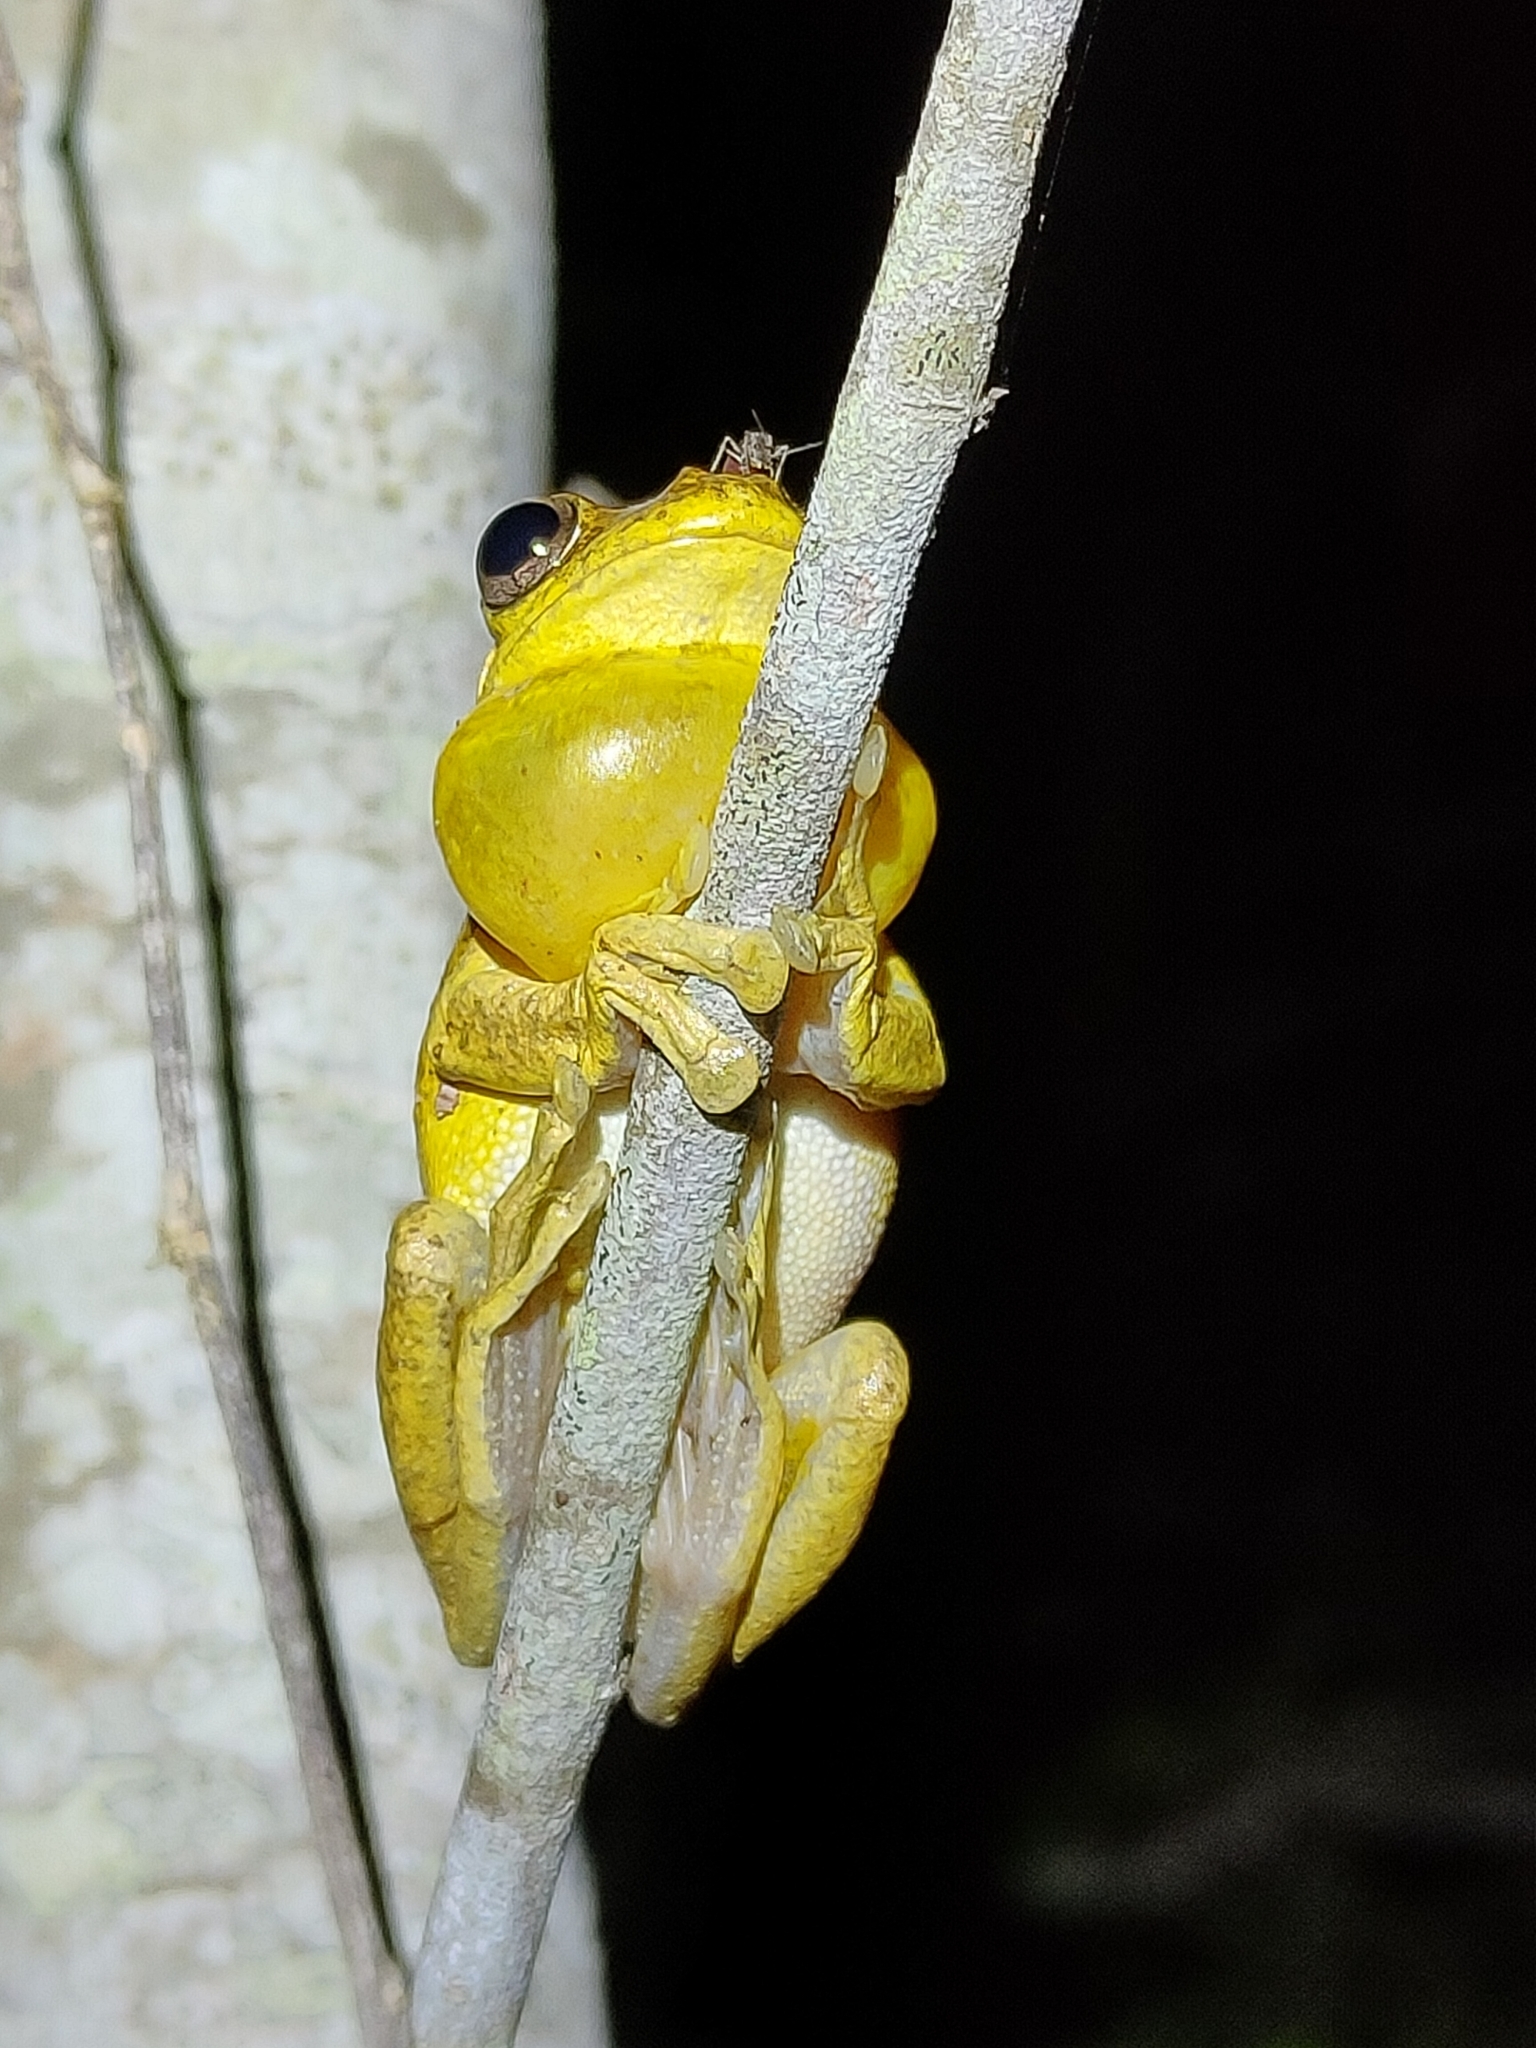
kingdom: Animalia
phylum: Chordata
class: Amphibia
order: Anura
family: Pelodryadidae
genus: Litoria
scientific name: Litoria tyleri
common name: Laughing tree frog
